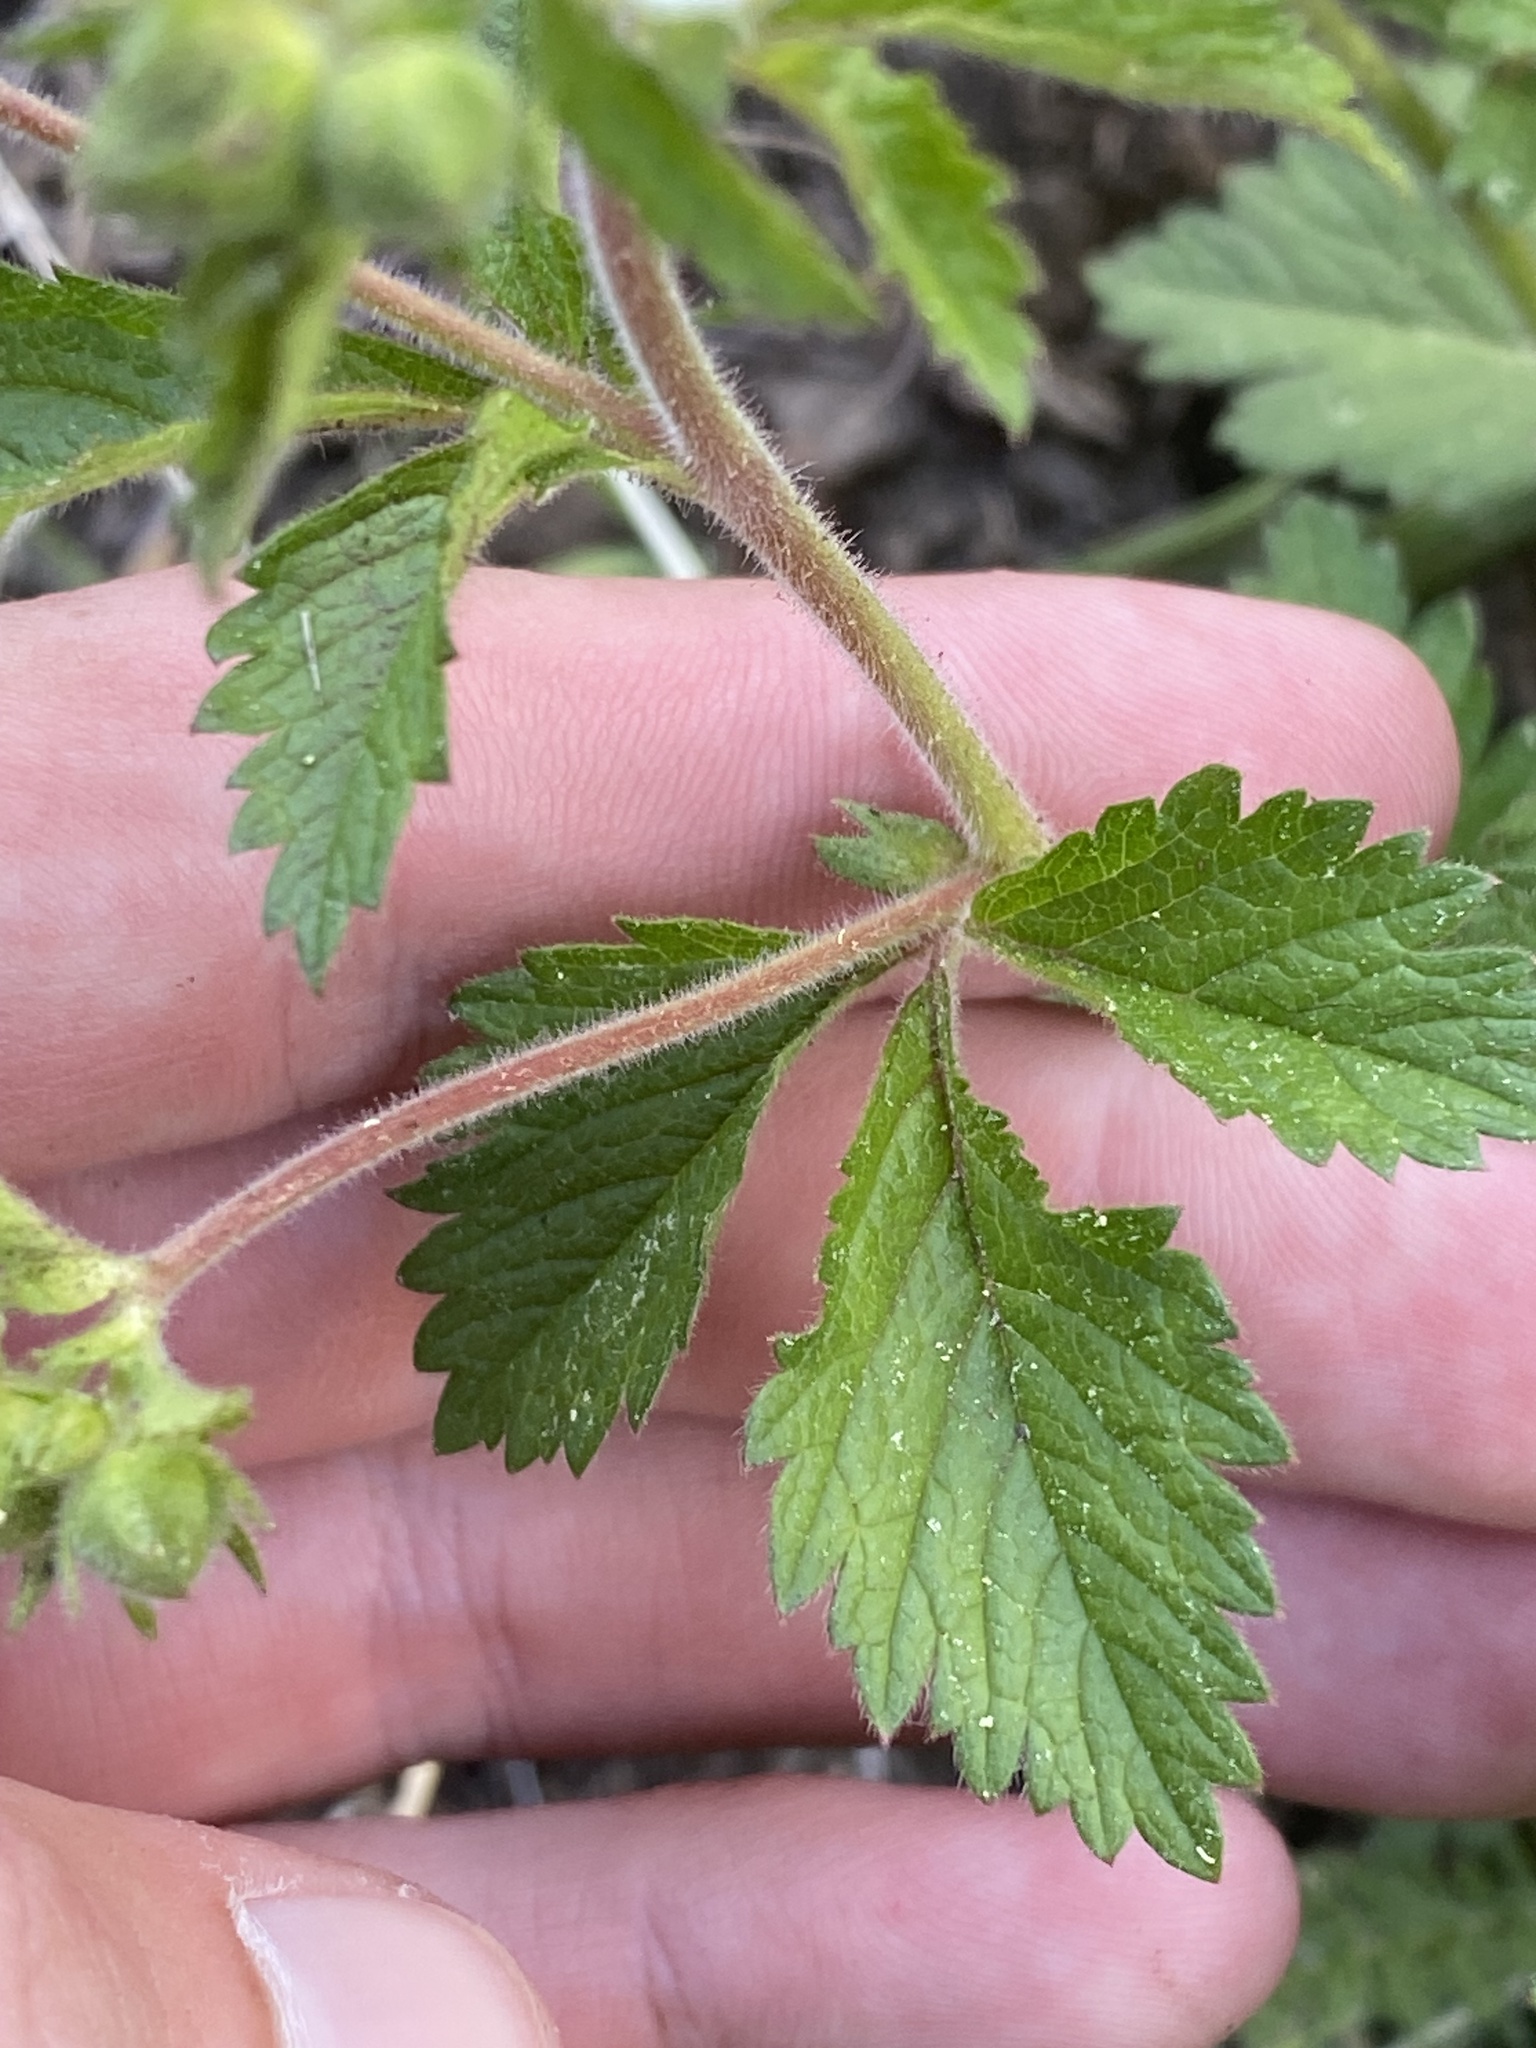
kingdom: Plantae
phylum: Tracheophyta
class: Magnoliopsida
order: Rosales
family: Rosaceae
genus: Drymocallis
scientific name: Drymocallis glandulosa
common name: Sticky cinquefoil
